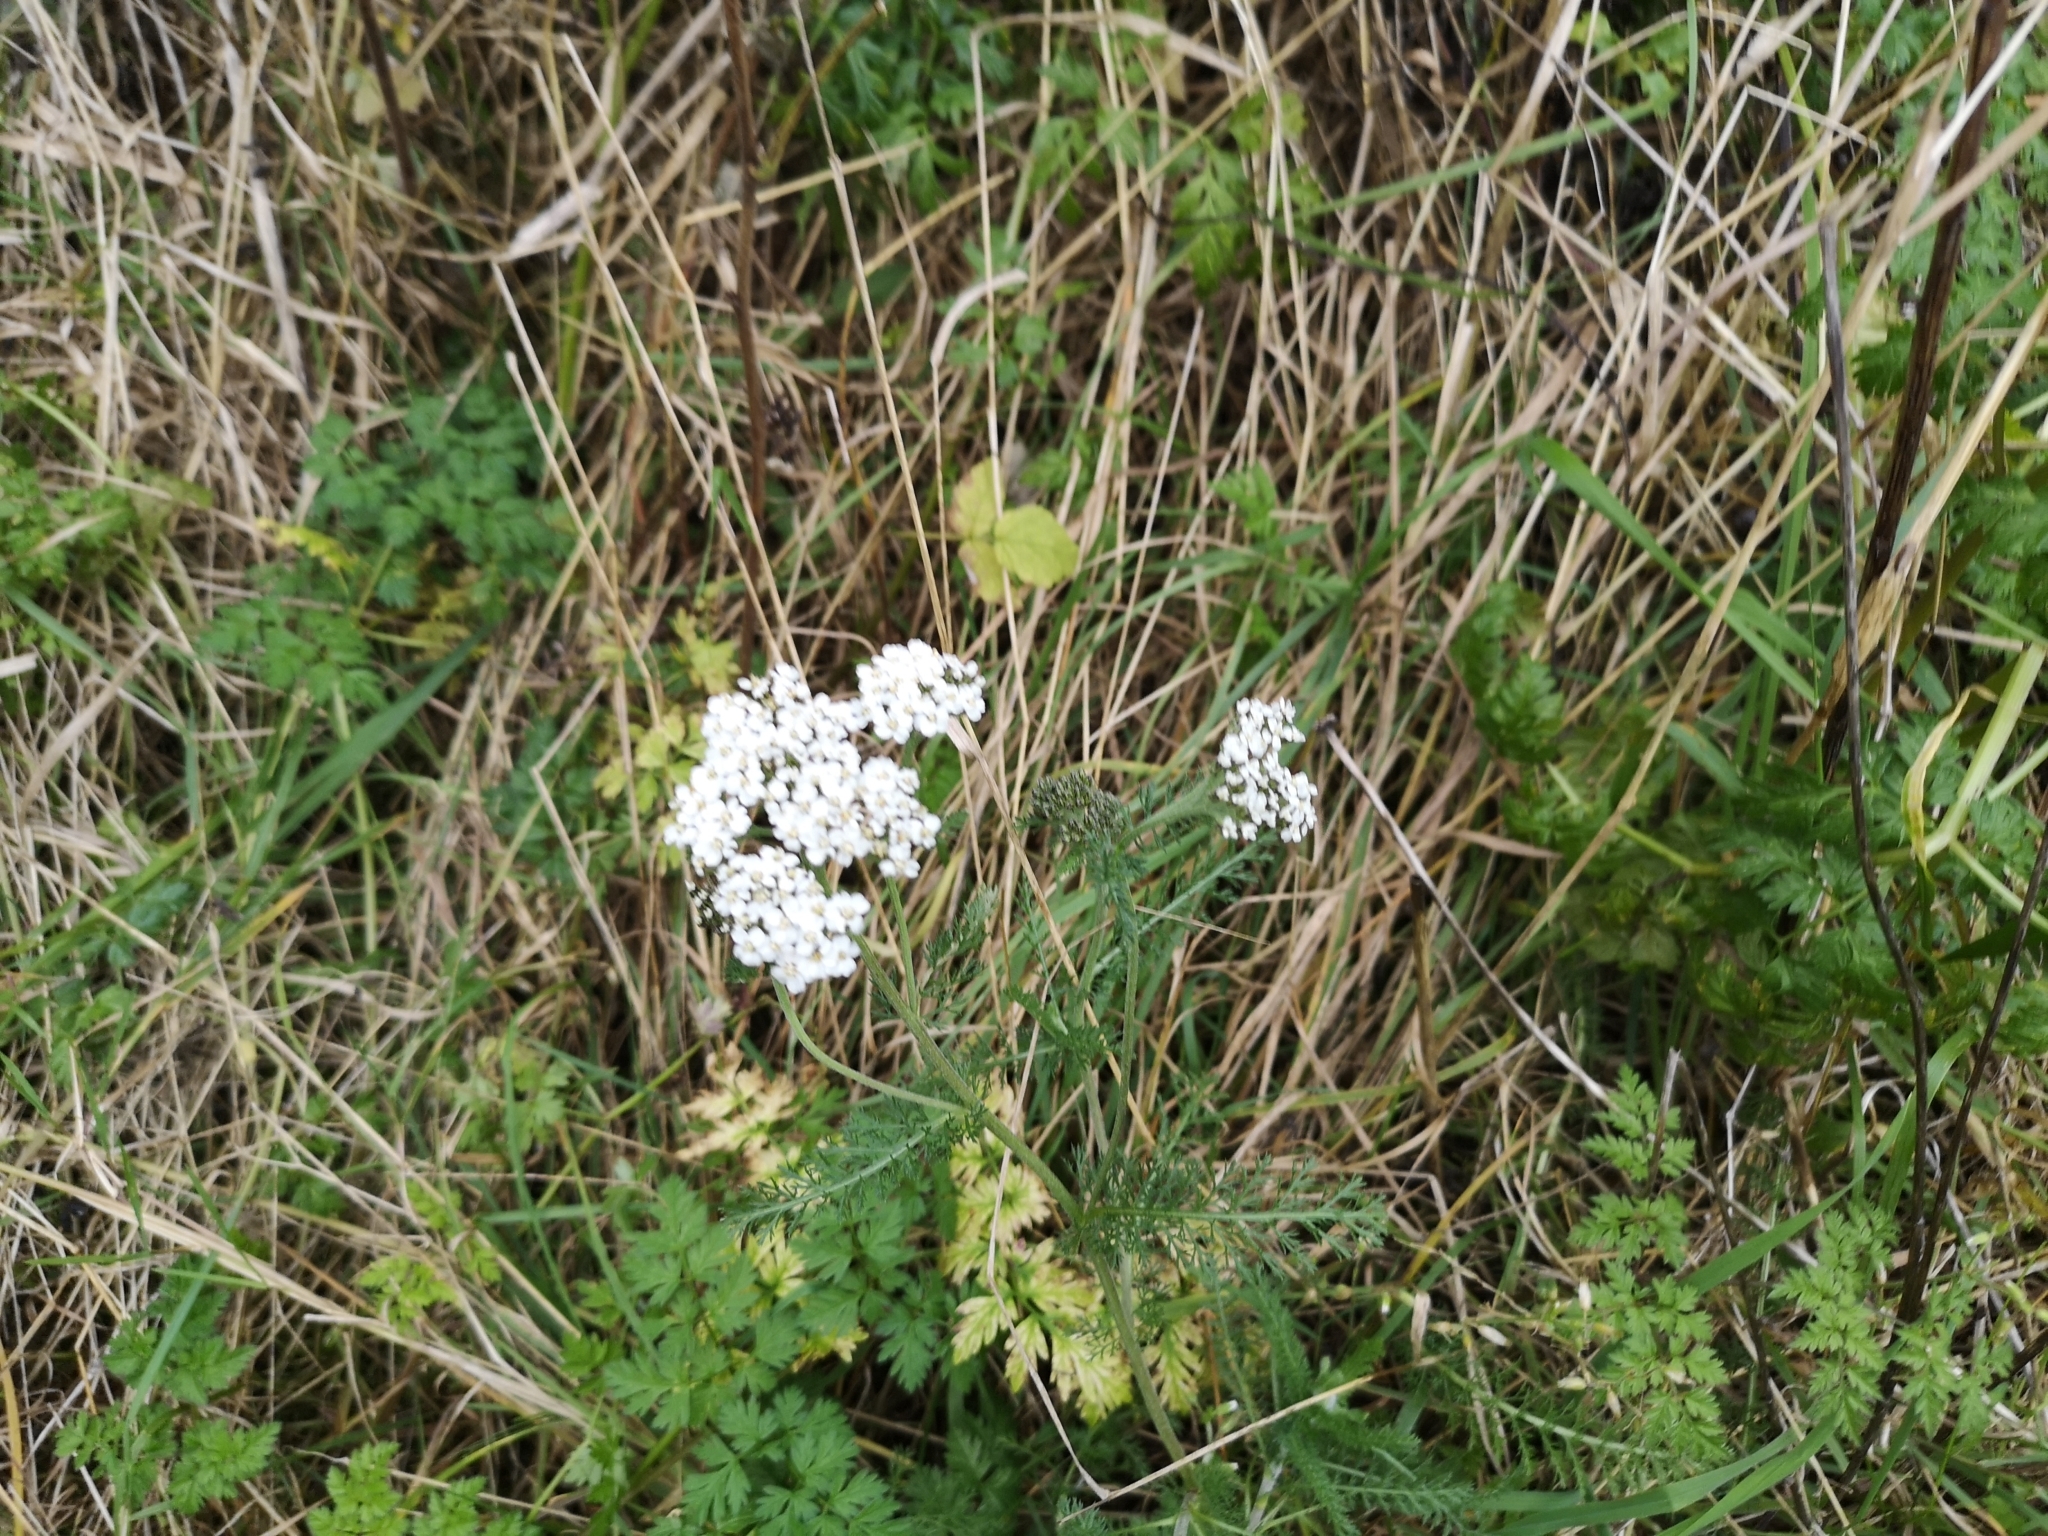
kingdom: Plantae
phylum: Tracheophyta
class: Magnoliopsida
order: Asterales
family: Asteraceae
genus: Achillea
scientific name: Achillea millefolium
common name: Yarrow
